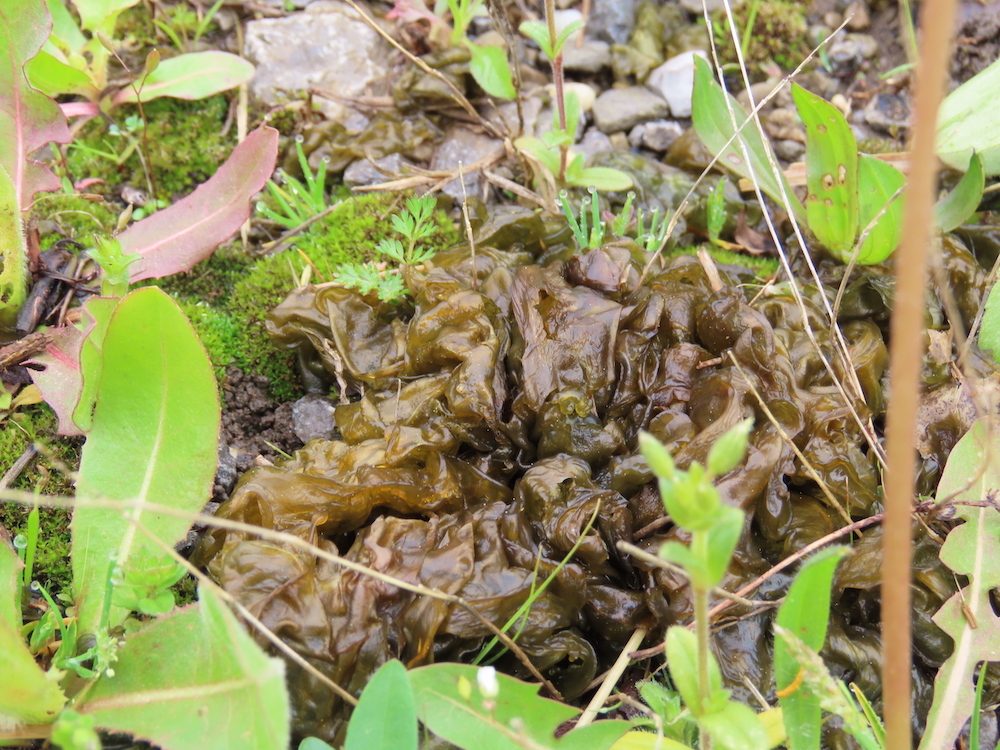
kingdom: Bacteria
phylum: Cyanobacteria
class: Cyanobacteriia
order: Cyanobacteriales
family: Nostocaceae
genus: Nostoc
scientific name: Nostoc commune
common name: Star jelly
